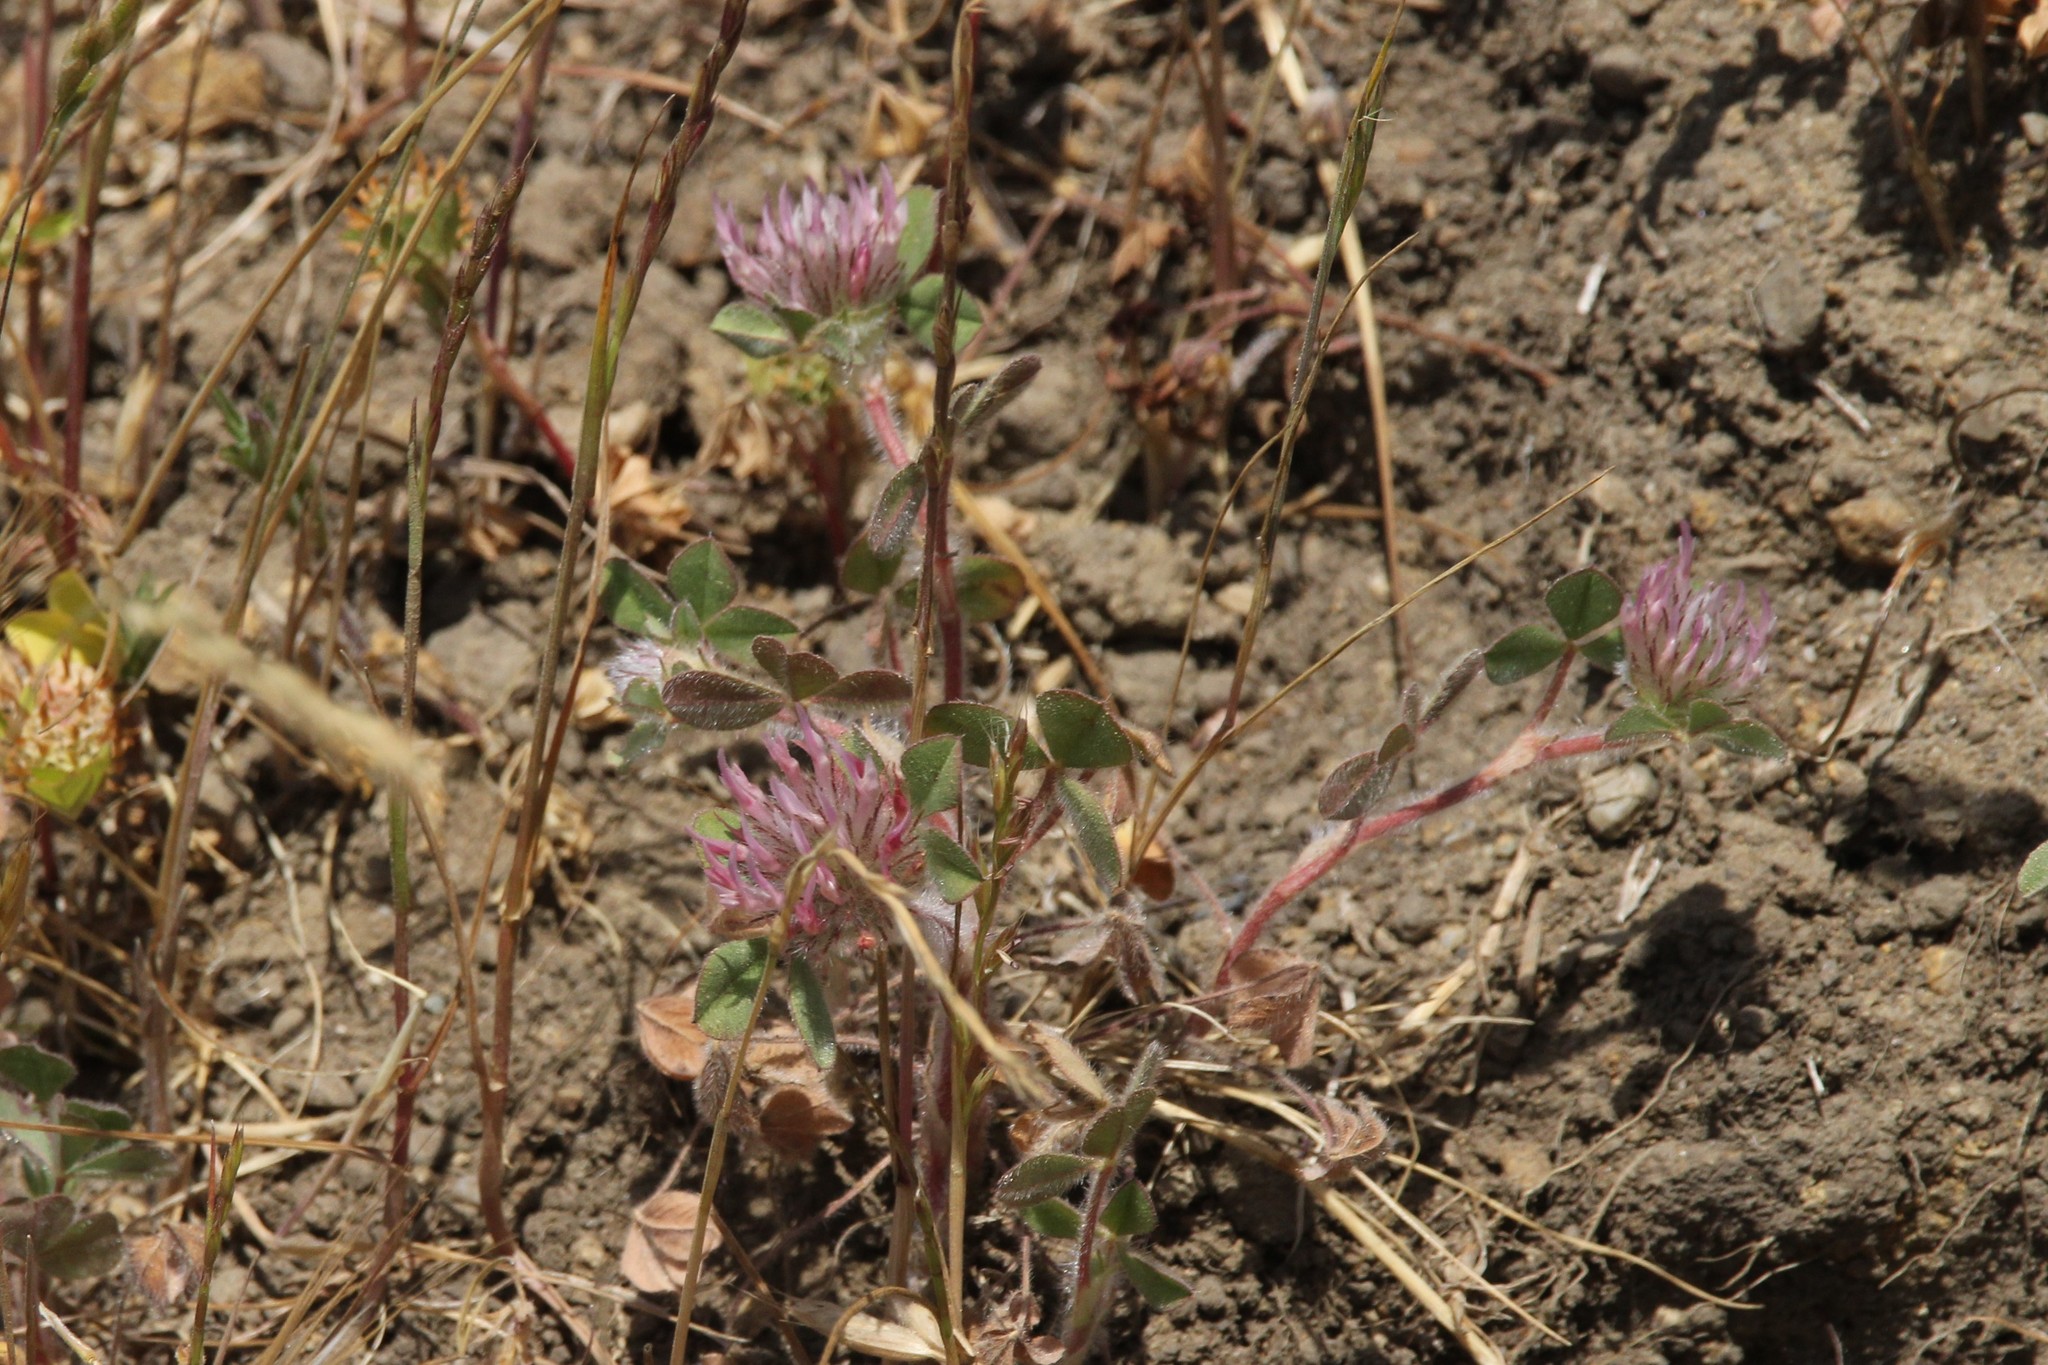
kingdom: Plantae
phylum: Tracheophyta
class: Magnoliopsida
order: Fabales
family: Fabaceae
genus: Trifolium
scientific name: Trifolium hirtum
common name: Rose clover
